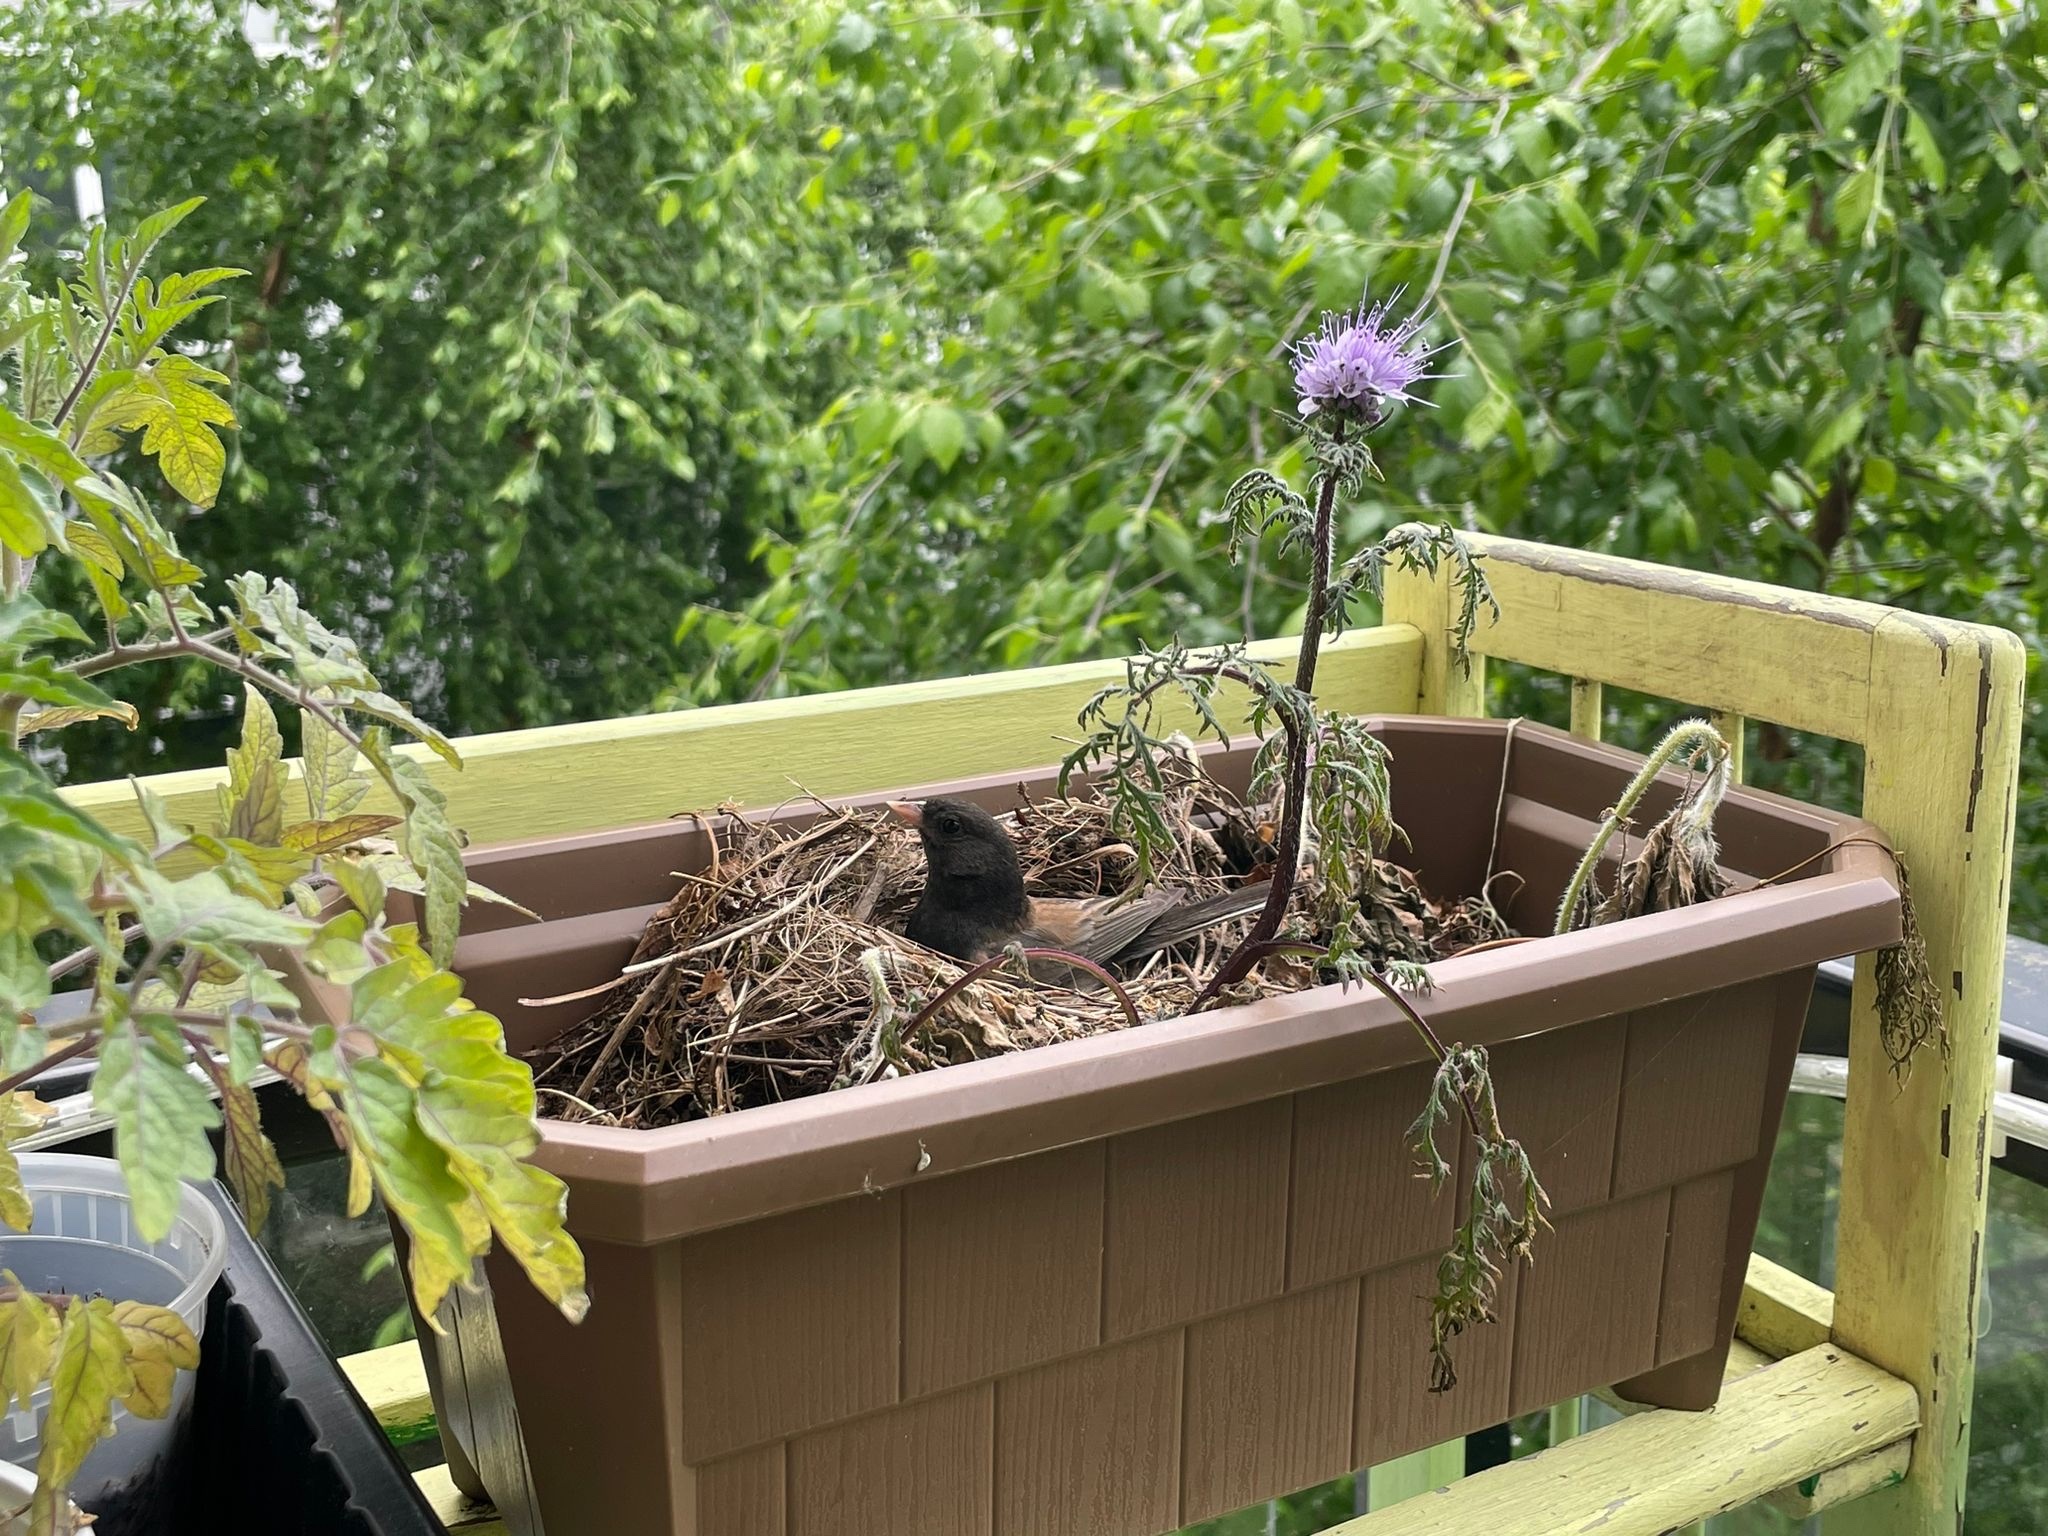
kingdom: Animalia
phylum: Chordata
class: Aves
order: Passeriformes
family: Passerellidae
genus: Junco
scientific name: Junco hyemalis
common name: Dark-eyed junco
